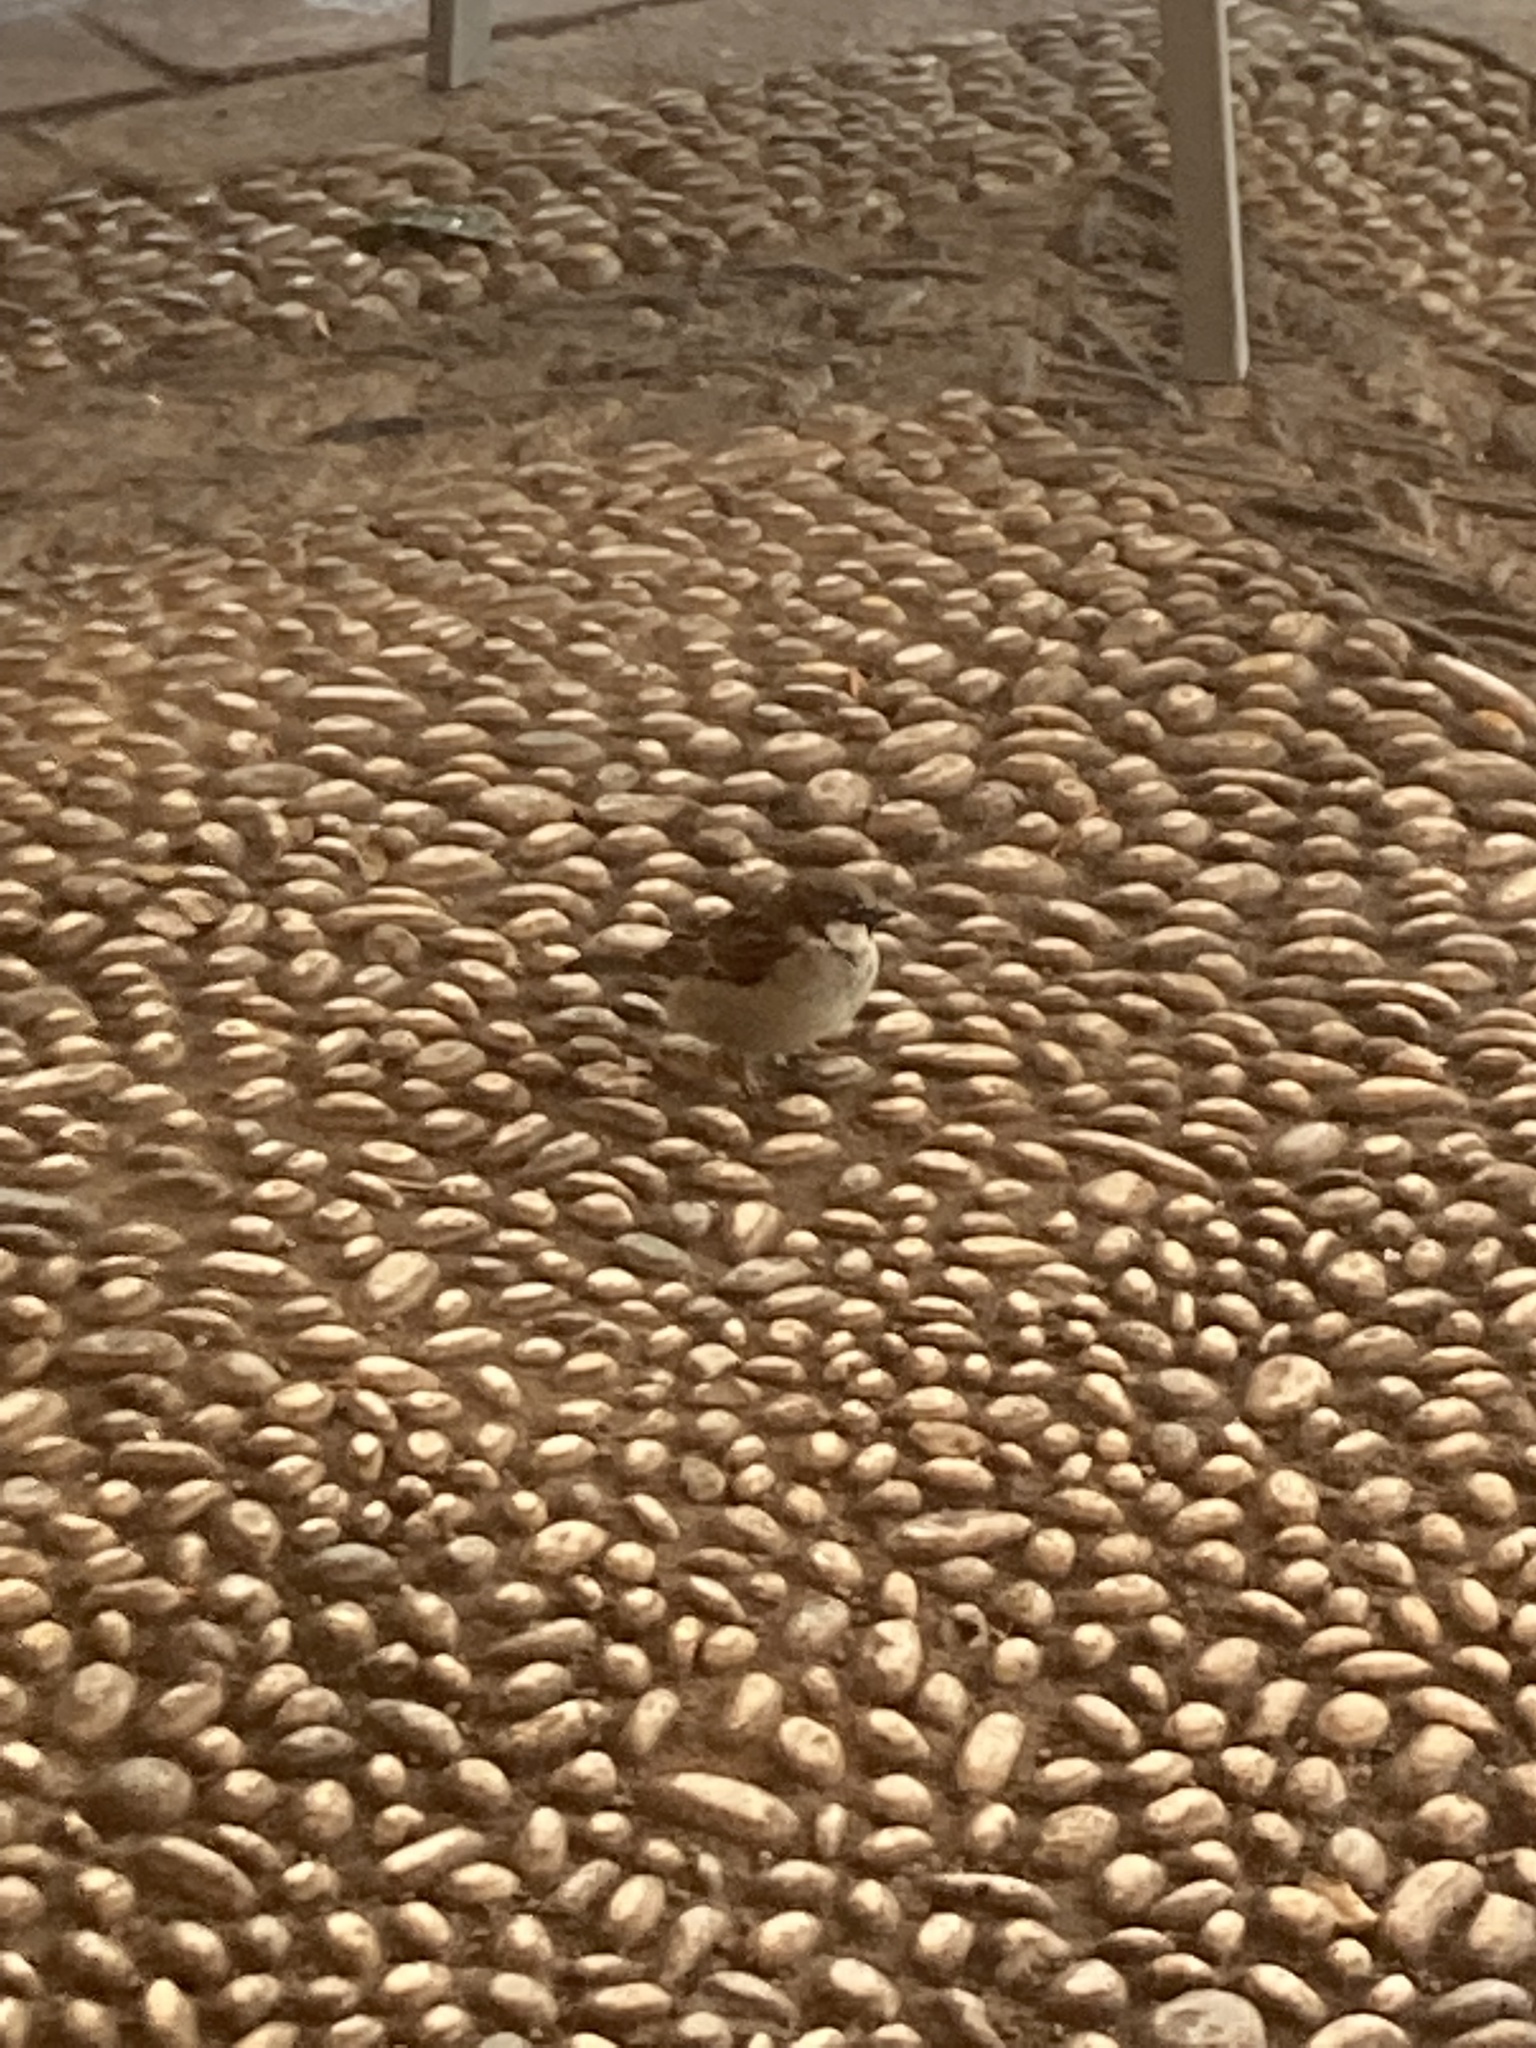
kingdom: Animalia
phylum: Chordata
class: Aves
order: Passeriformes
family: Passeridae
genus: Passer
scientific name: Passer domesticus
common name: House sparrow
